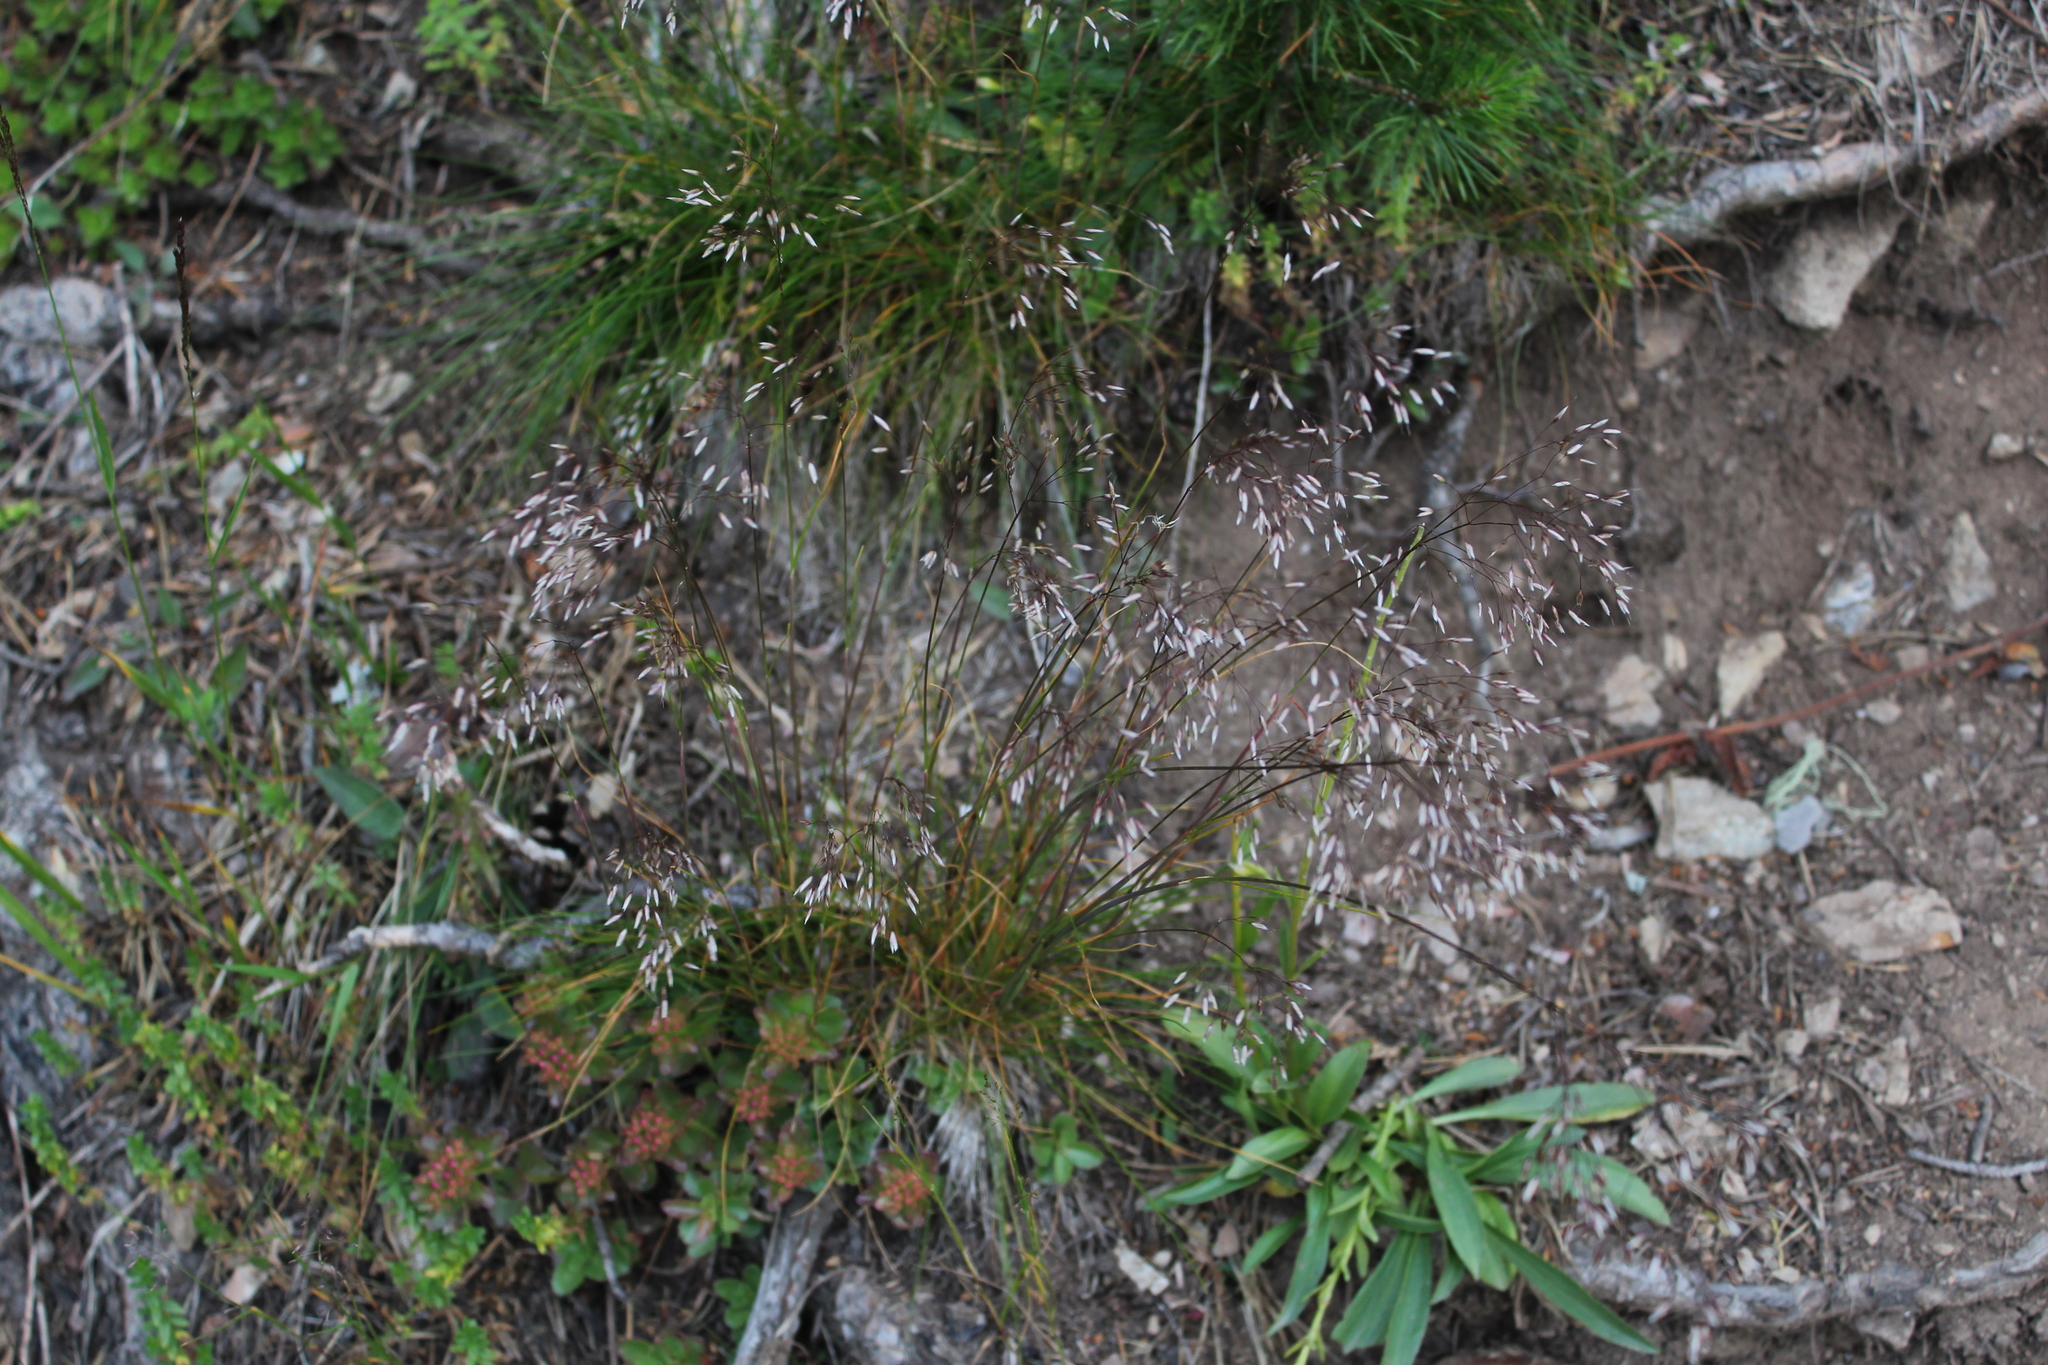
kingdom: Plantae
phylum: Tracheophyta
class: Liliopsida
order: Poales
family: Poaceae
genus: Avenella
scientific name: Avenella flexuosa
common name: Wavy hairgrass
